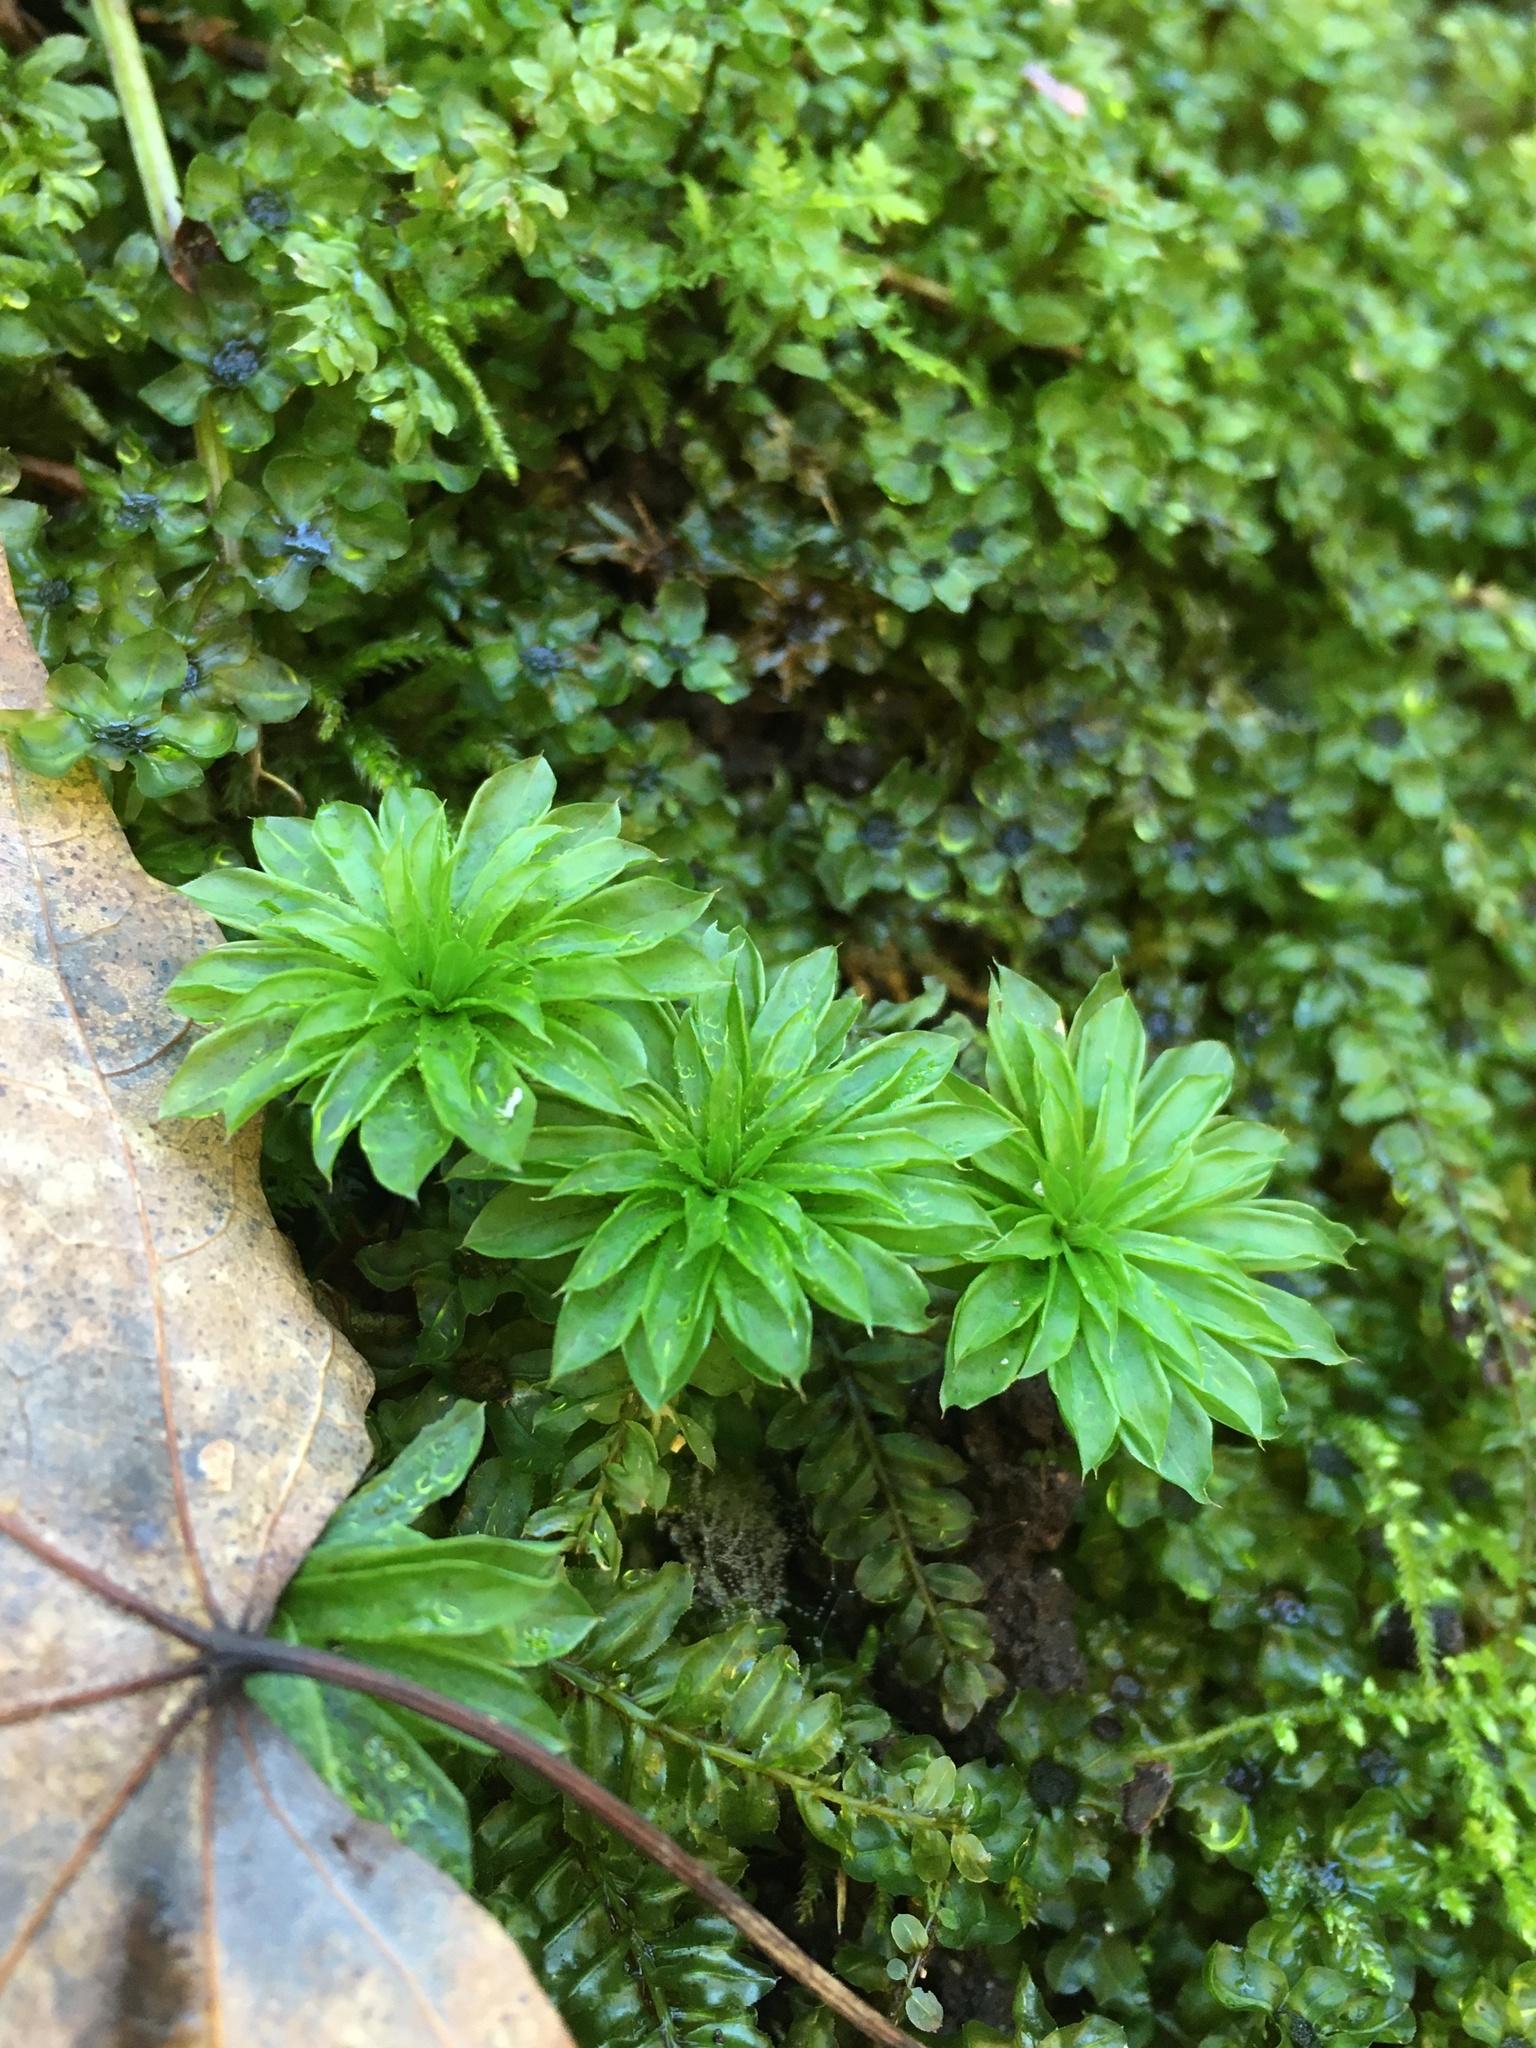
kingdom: Plantae
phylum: Bryophyta
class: Bryopsida
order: Bryales
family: Bryaceae
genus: Rhodobryum
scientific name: Rhodobryum ontariense
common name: Ontario rhodobryum moss
